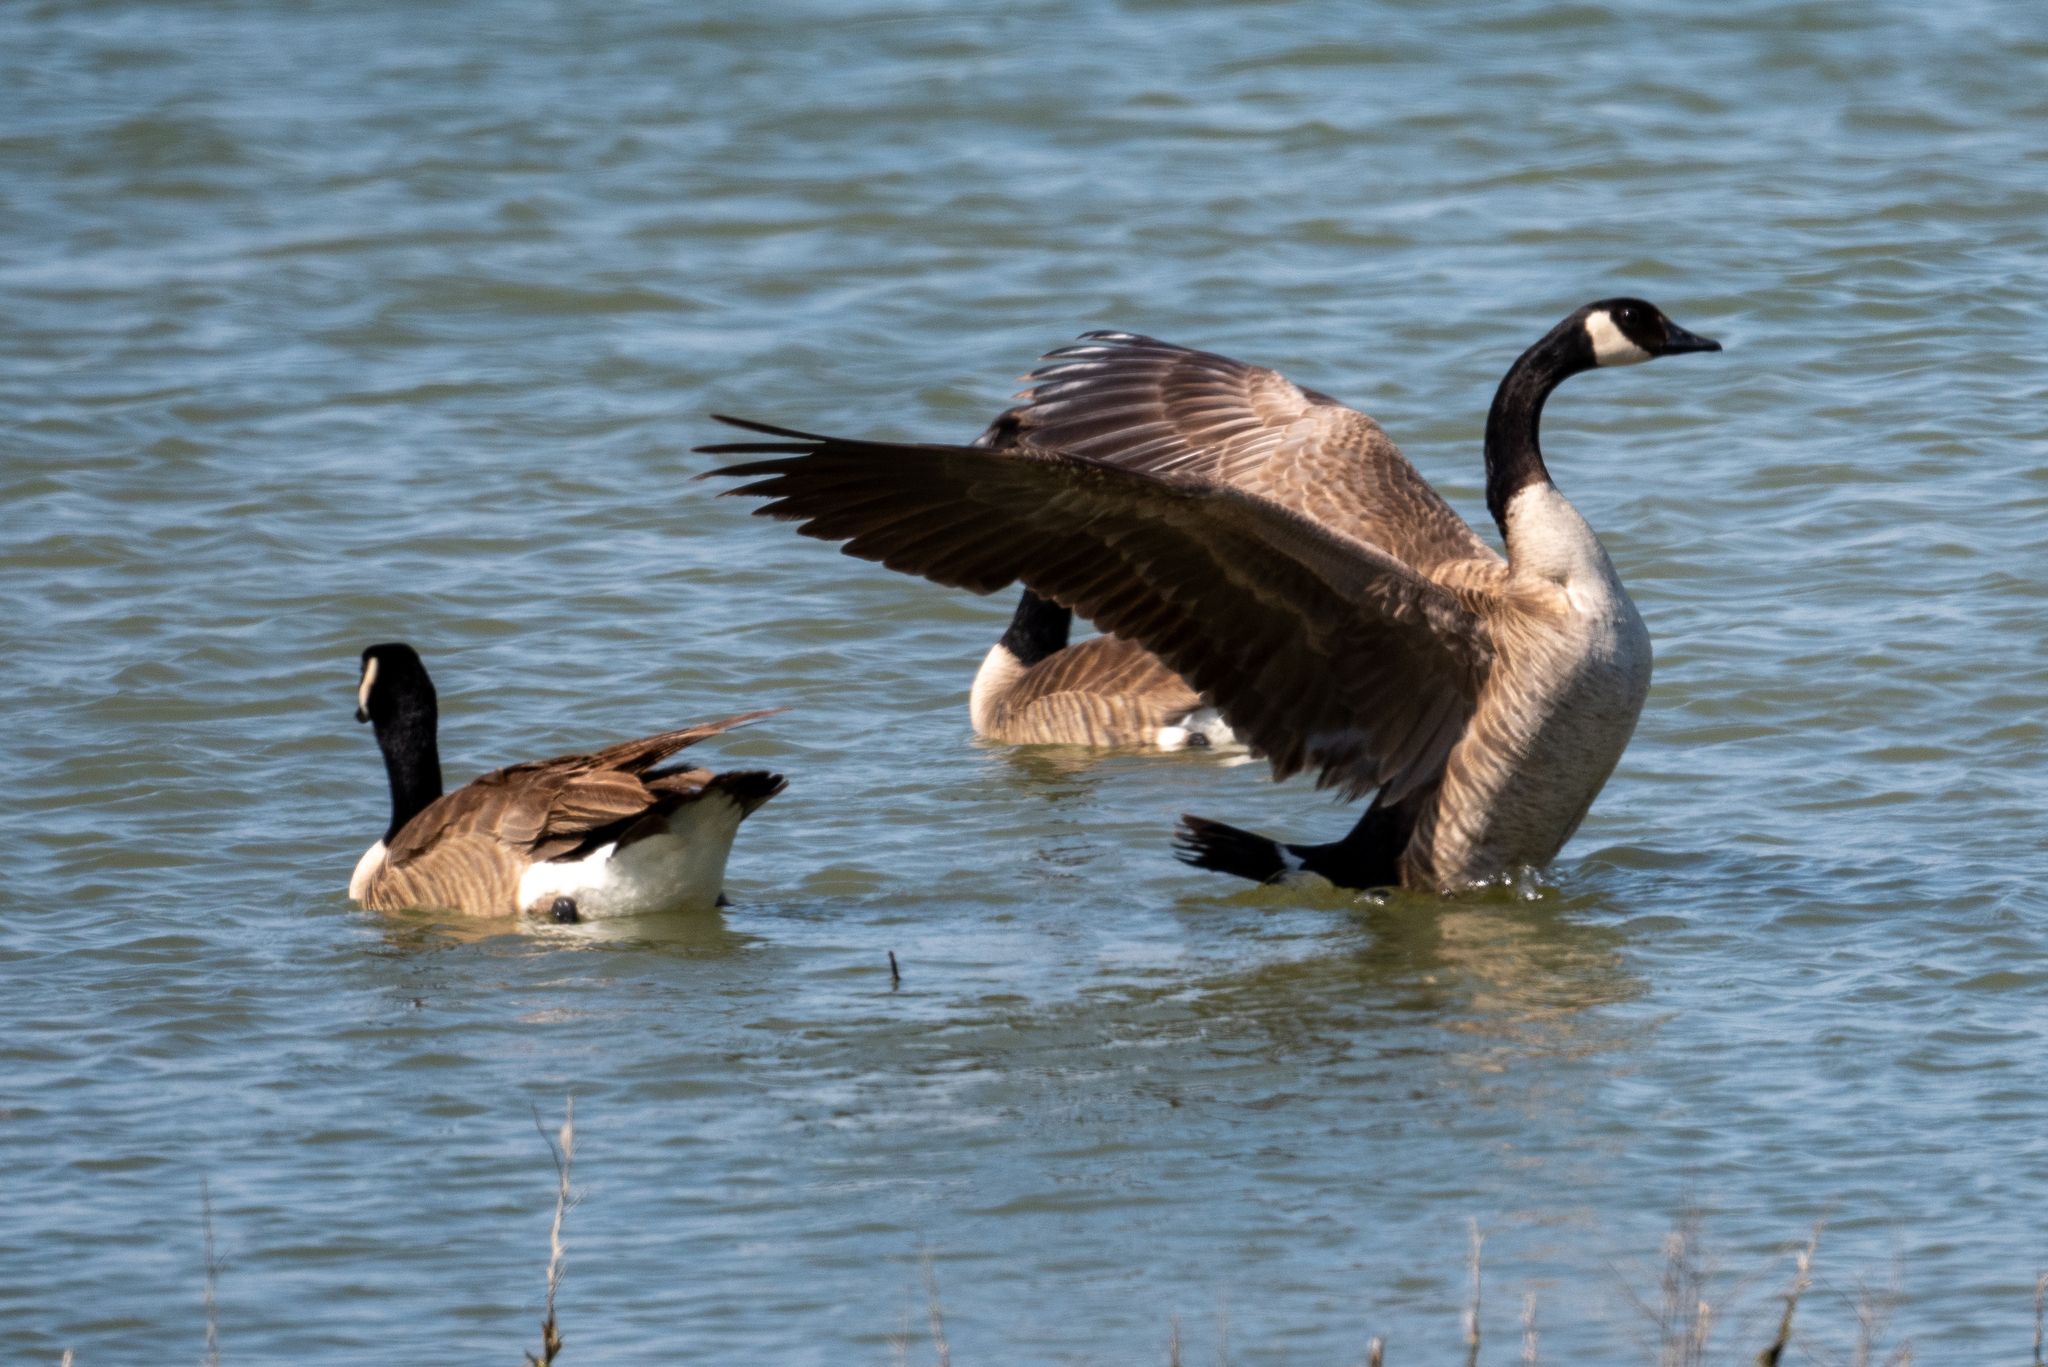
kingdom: Animalia
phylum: Chordata
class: Aves
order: Anseriformes
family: Anatidae
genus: Branta
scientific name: Branta canadensis
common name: Canada goose
